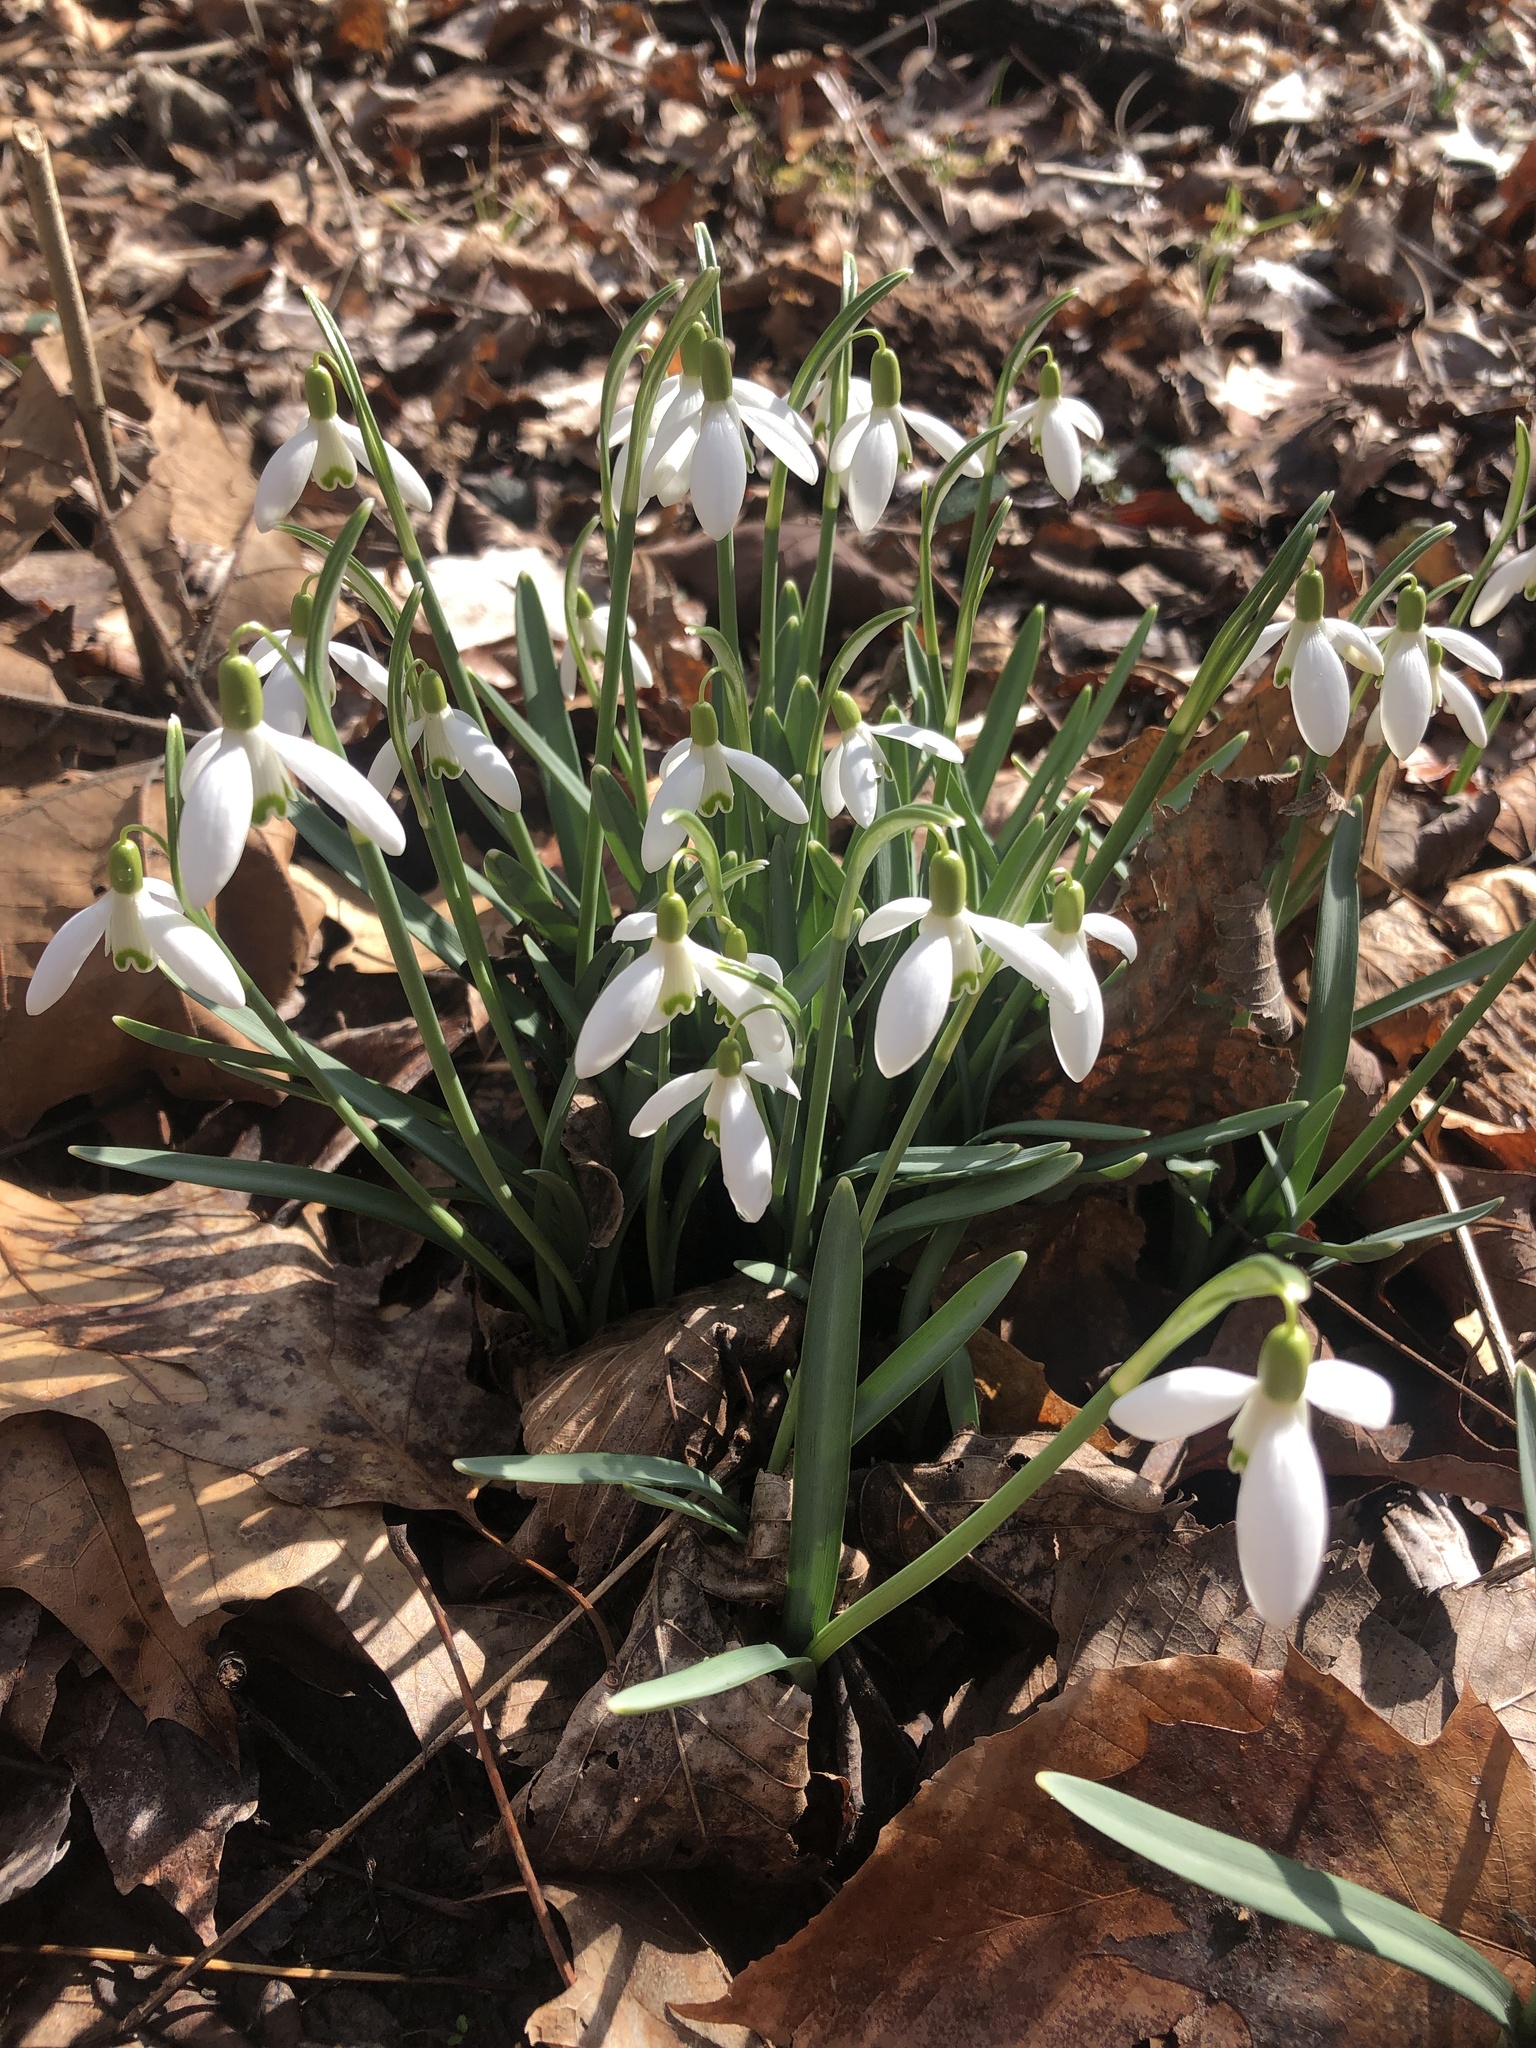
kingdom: Plantae
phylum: Tracheophyta
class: Liliopsida
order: Asparagales
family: Amaryllidaceae
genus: Galanthus
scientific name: Galanthus nivalis
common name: Snowdrop
